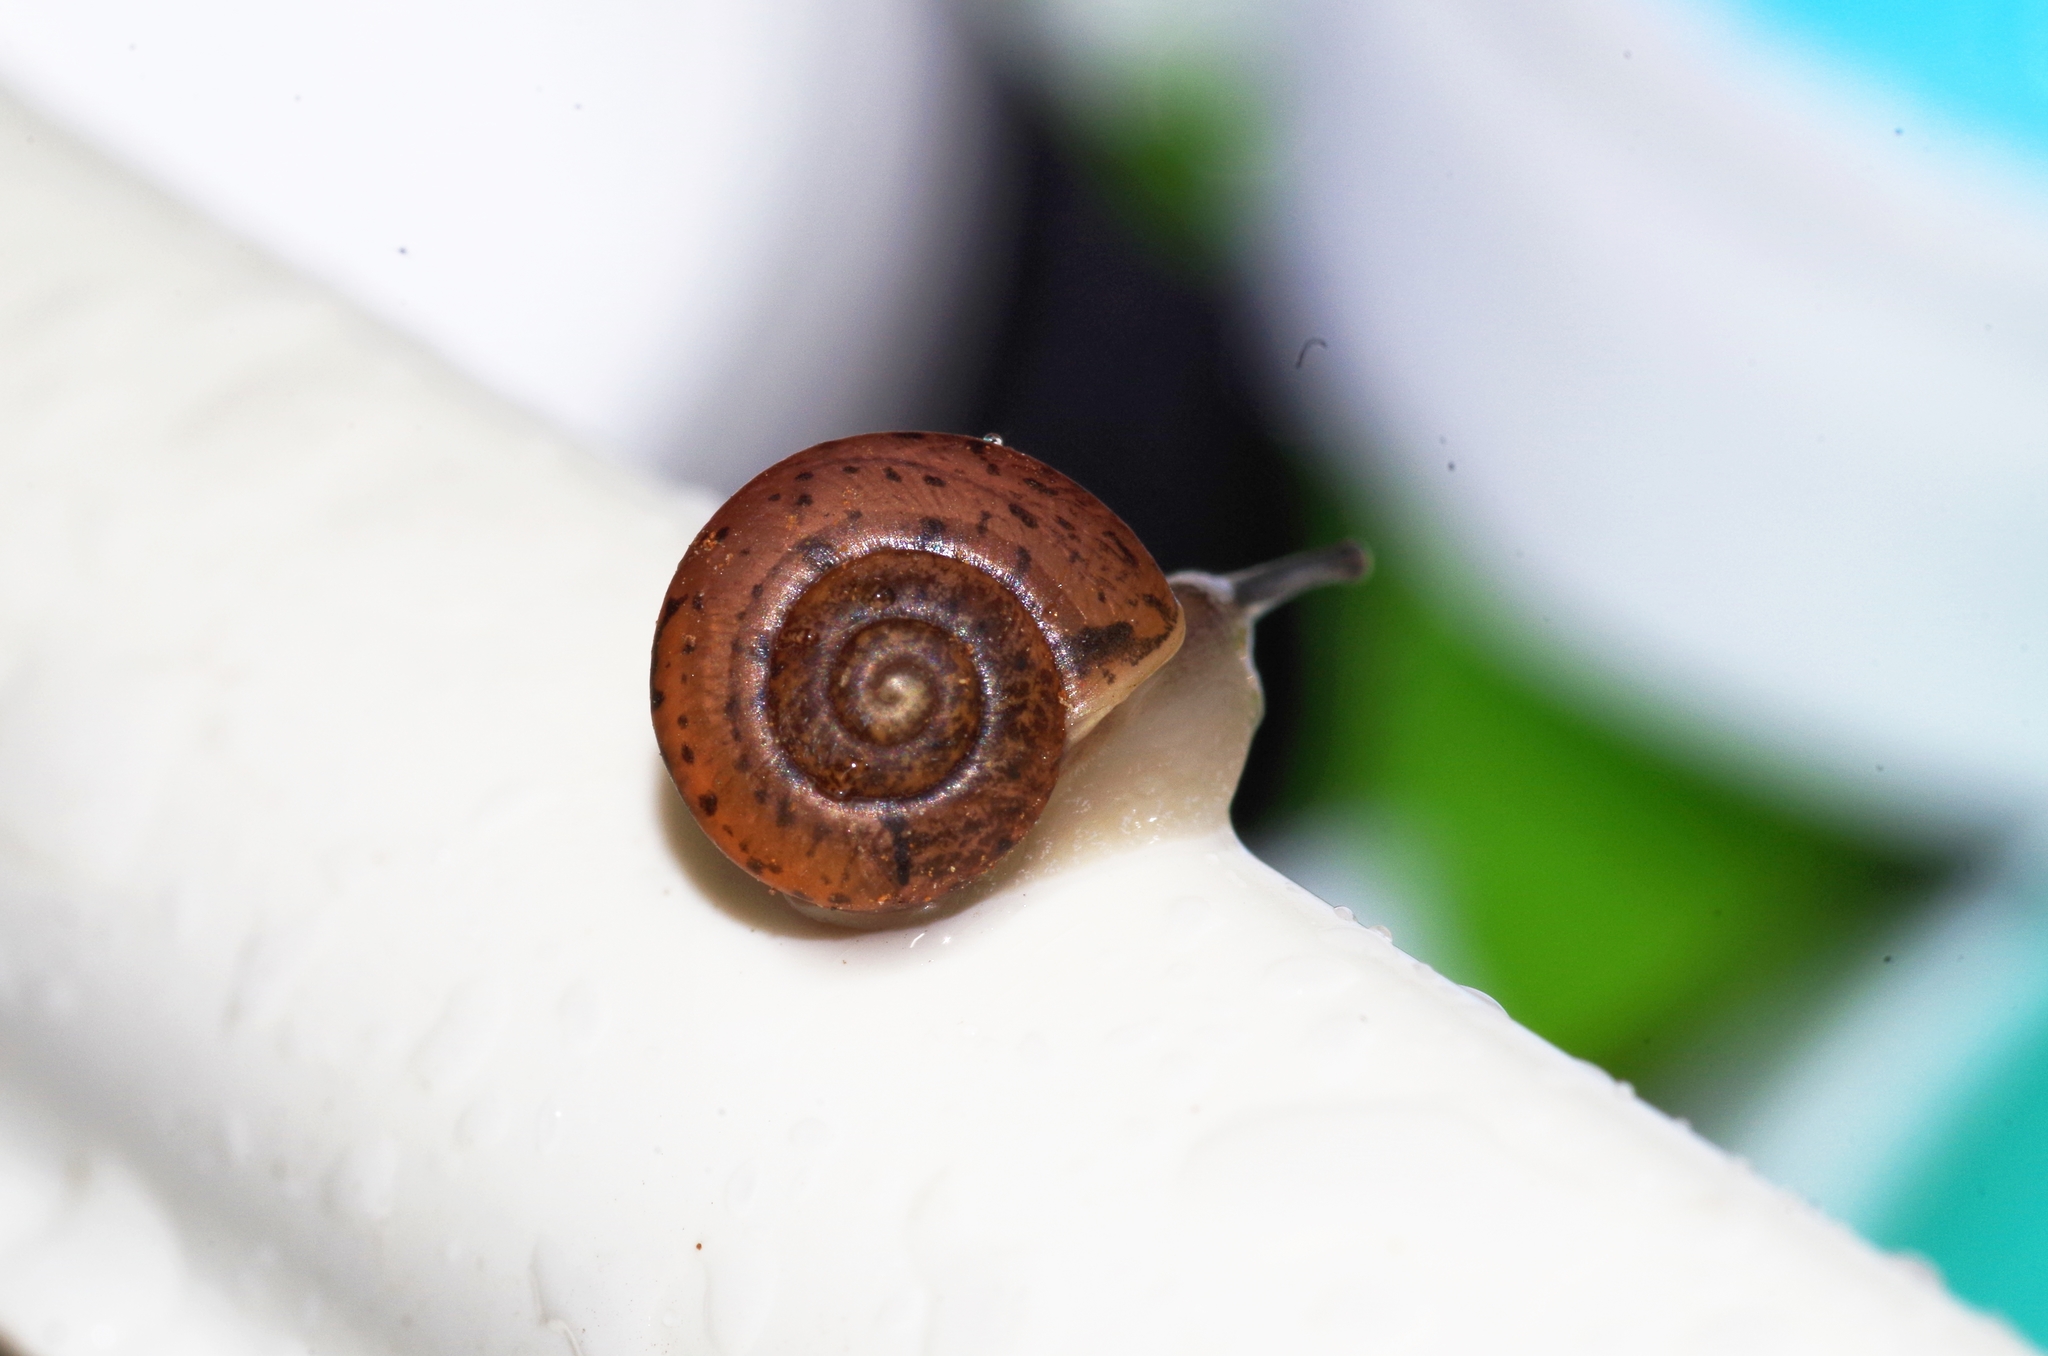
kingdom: Animalia
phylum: Mollusca
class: Gastropoda
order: Stylommatophora
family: Camaenidae
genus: Bradybaena
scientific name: Bradybaena circulus
